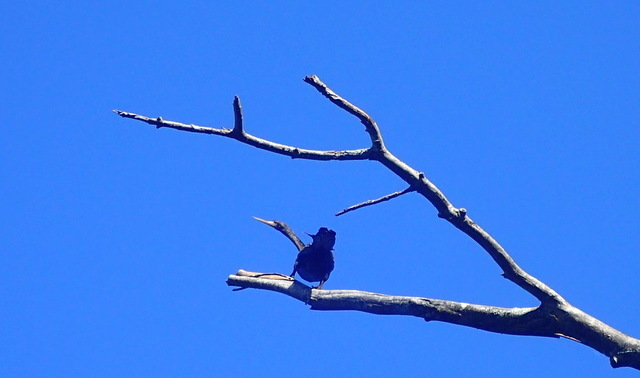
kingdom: Animalia
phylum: Chordata
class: Aves
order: Suliformes
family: Anhingidae
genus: Anhinga
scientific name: Anhinga anhinga
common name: Anhinga
